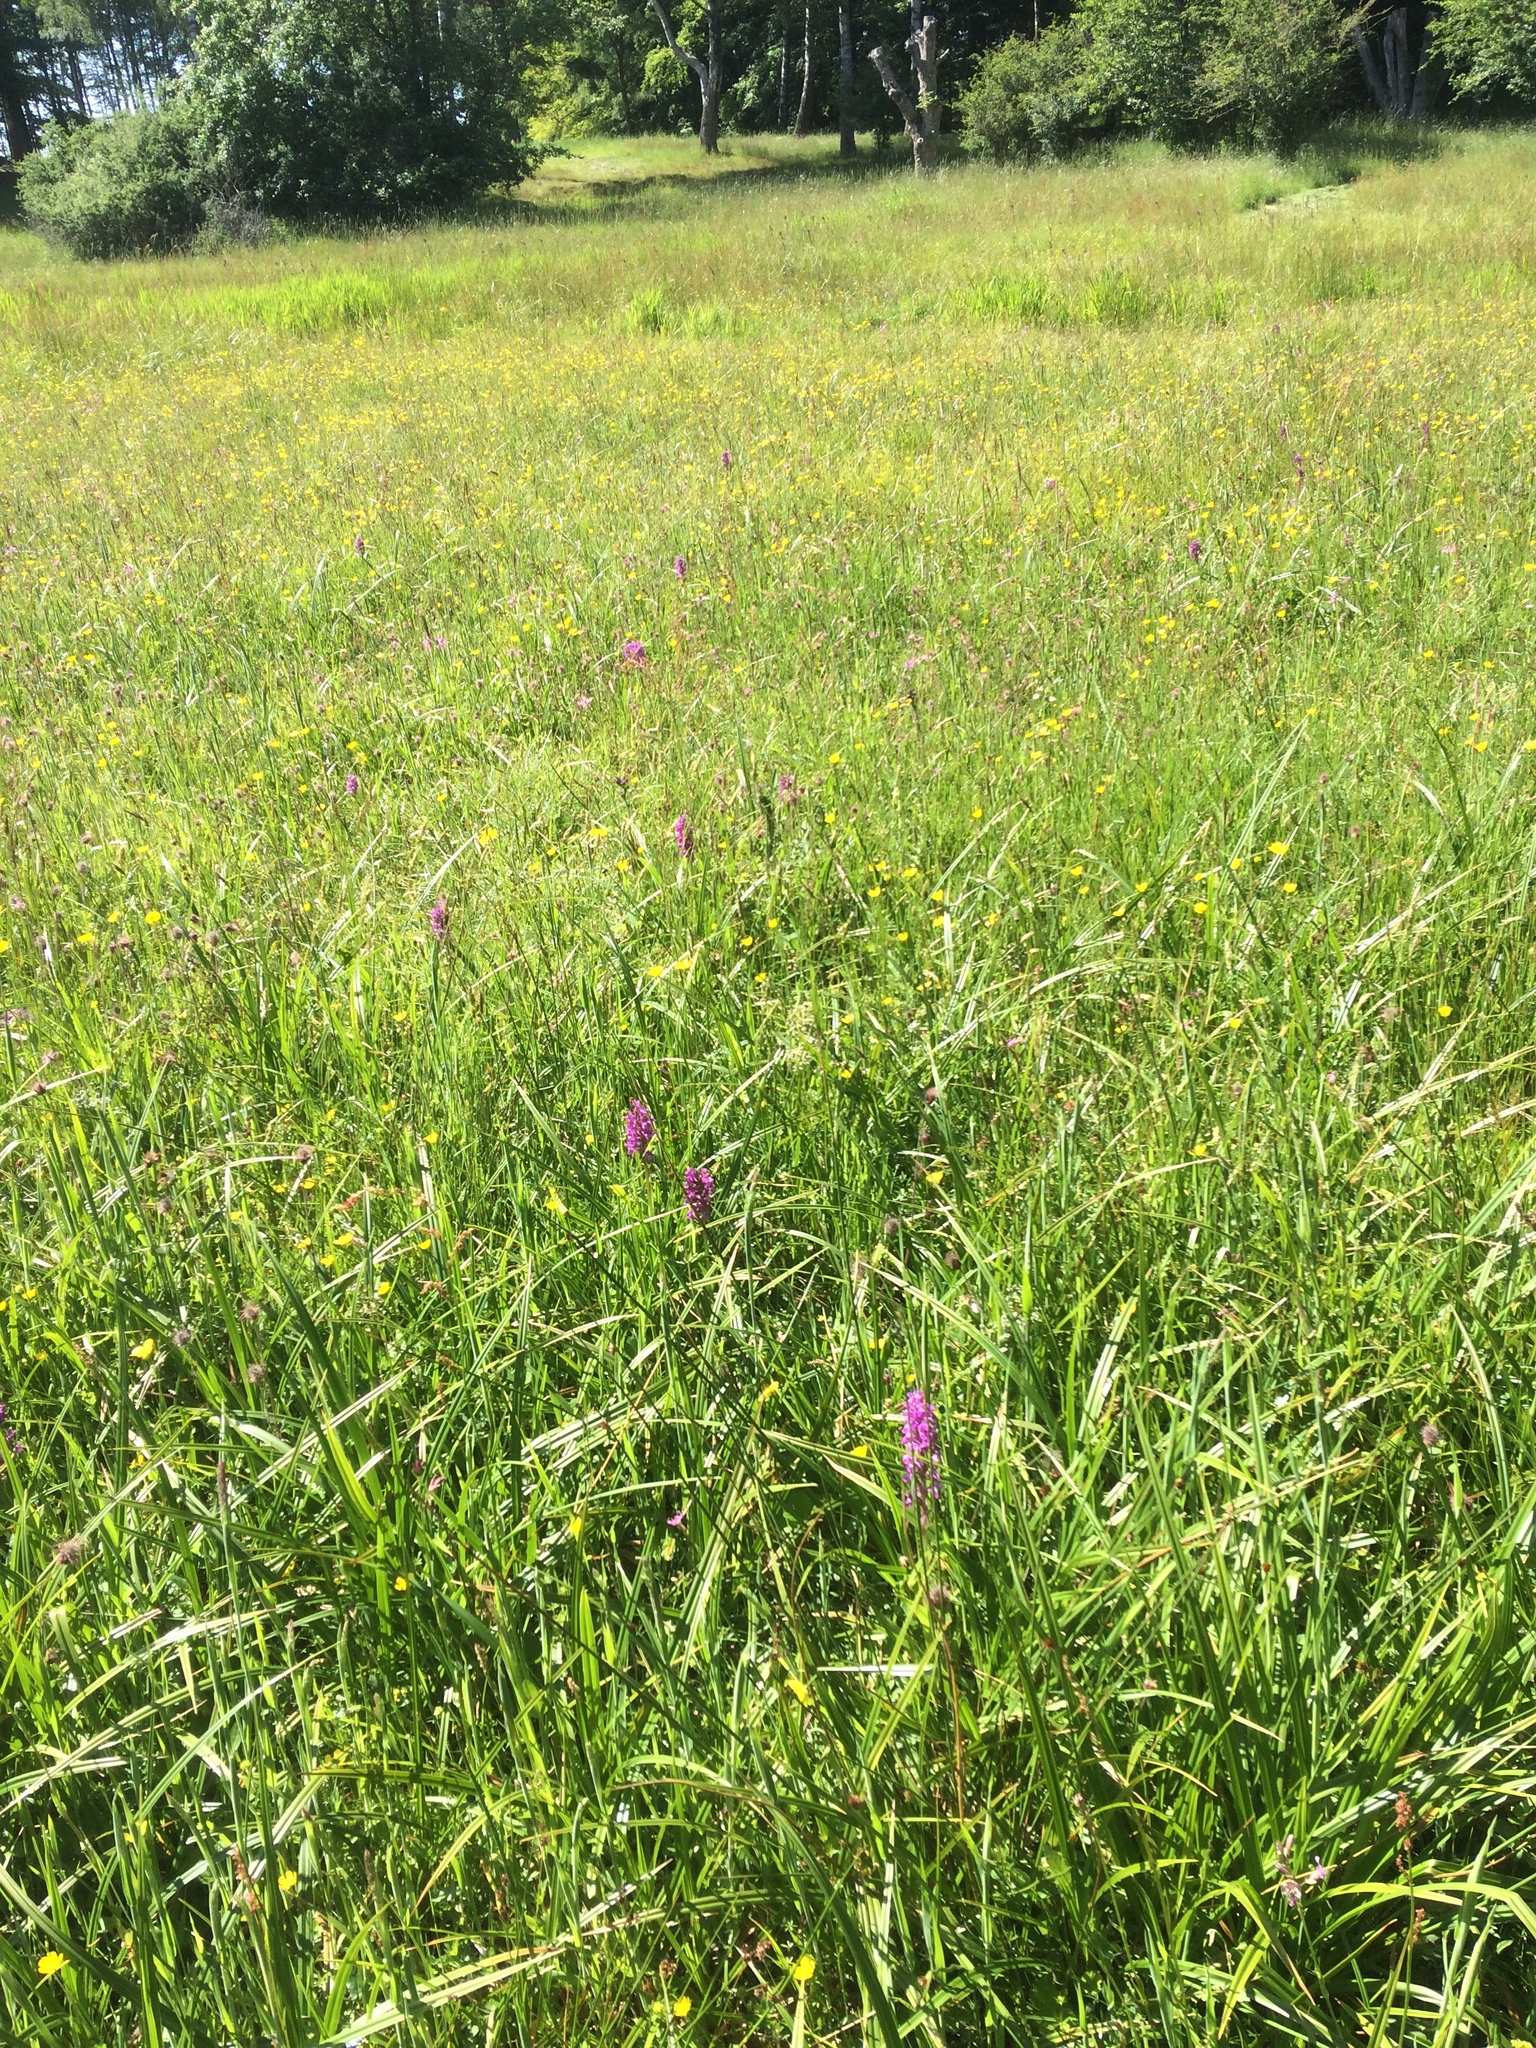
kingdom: Plantae
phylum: Tracheophyta
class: Liliopsida
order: Asparagales
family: Orchidaceae
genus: Dactylorhiza
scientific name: Dactylorhiza majalis
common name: Marsh orchid
